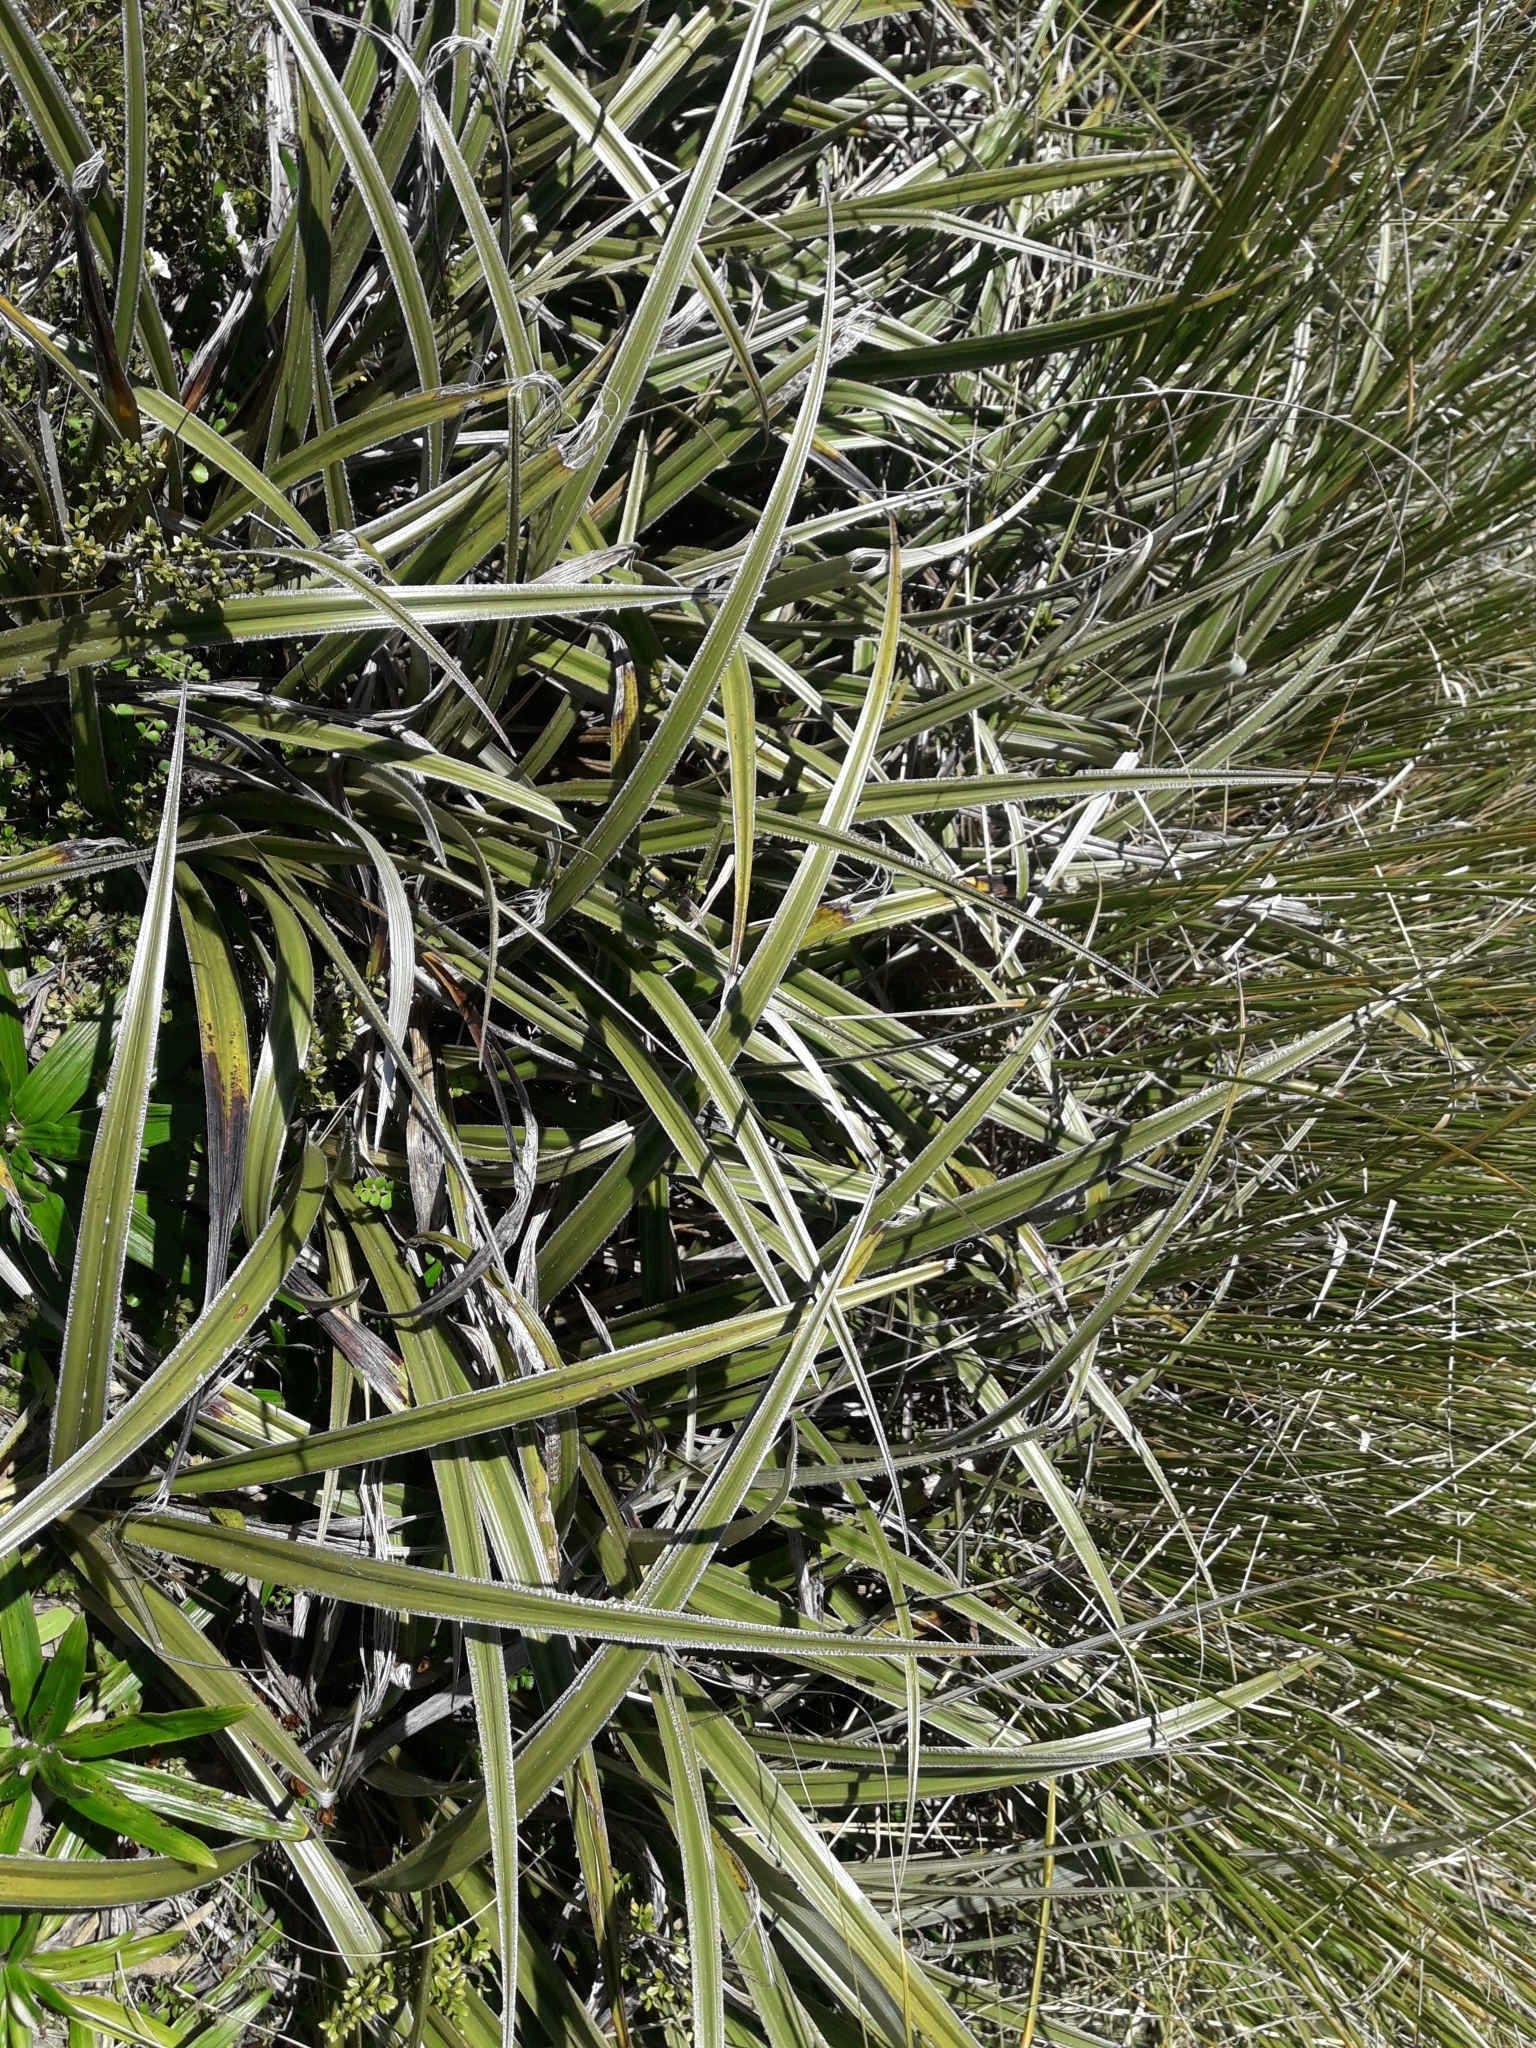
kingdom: Plantae
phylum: Tracheophyta
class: Liliopsida
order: Asparagales
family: Asteliaceae
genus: Astelia
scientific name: Astelia nervosa
